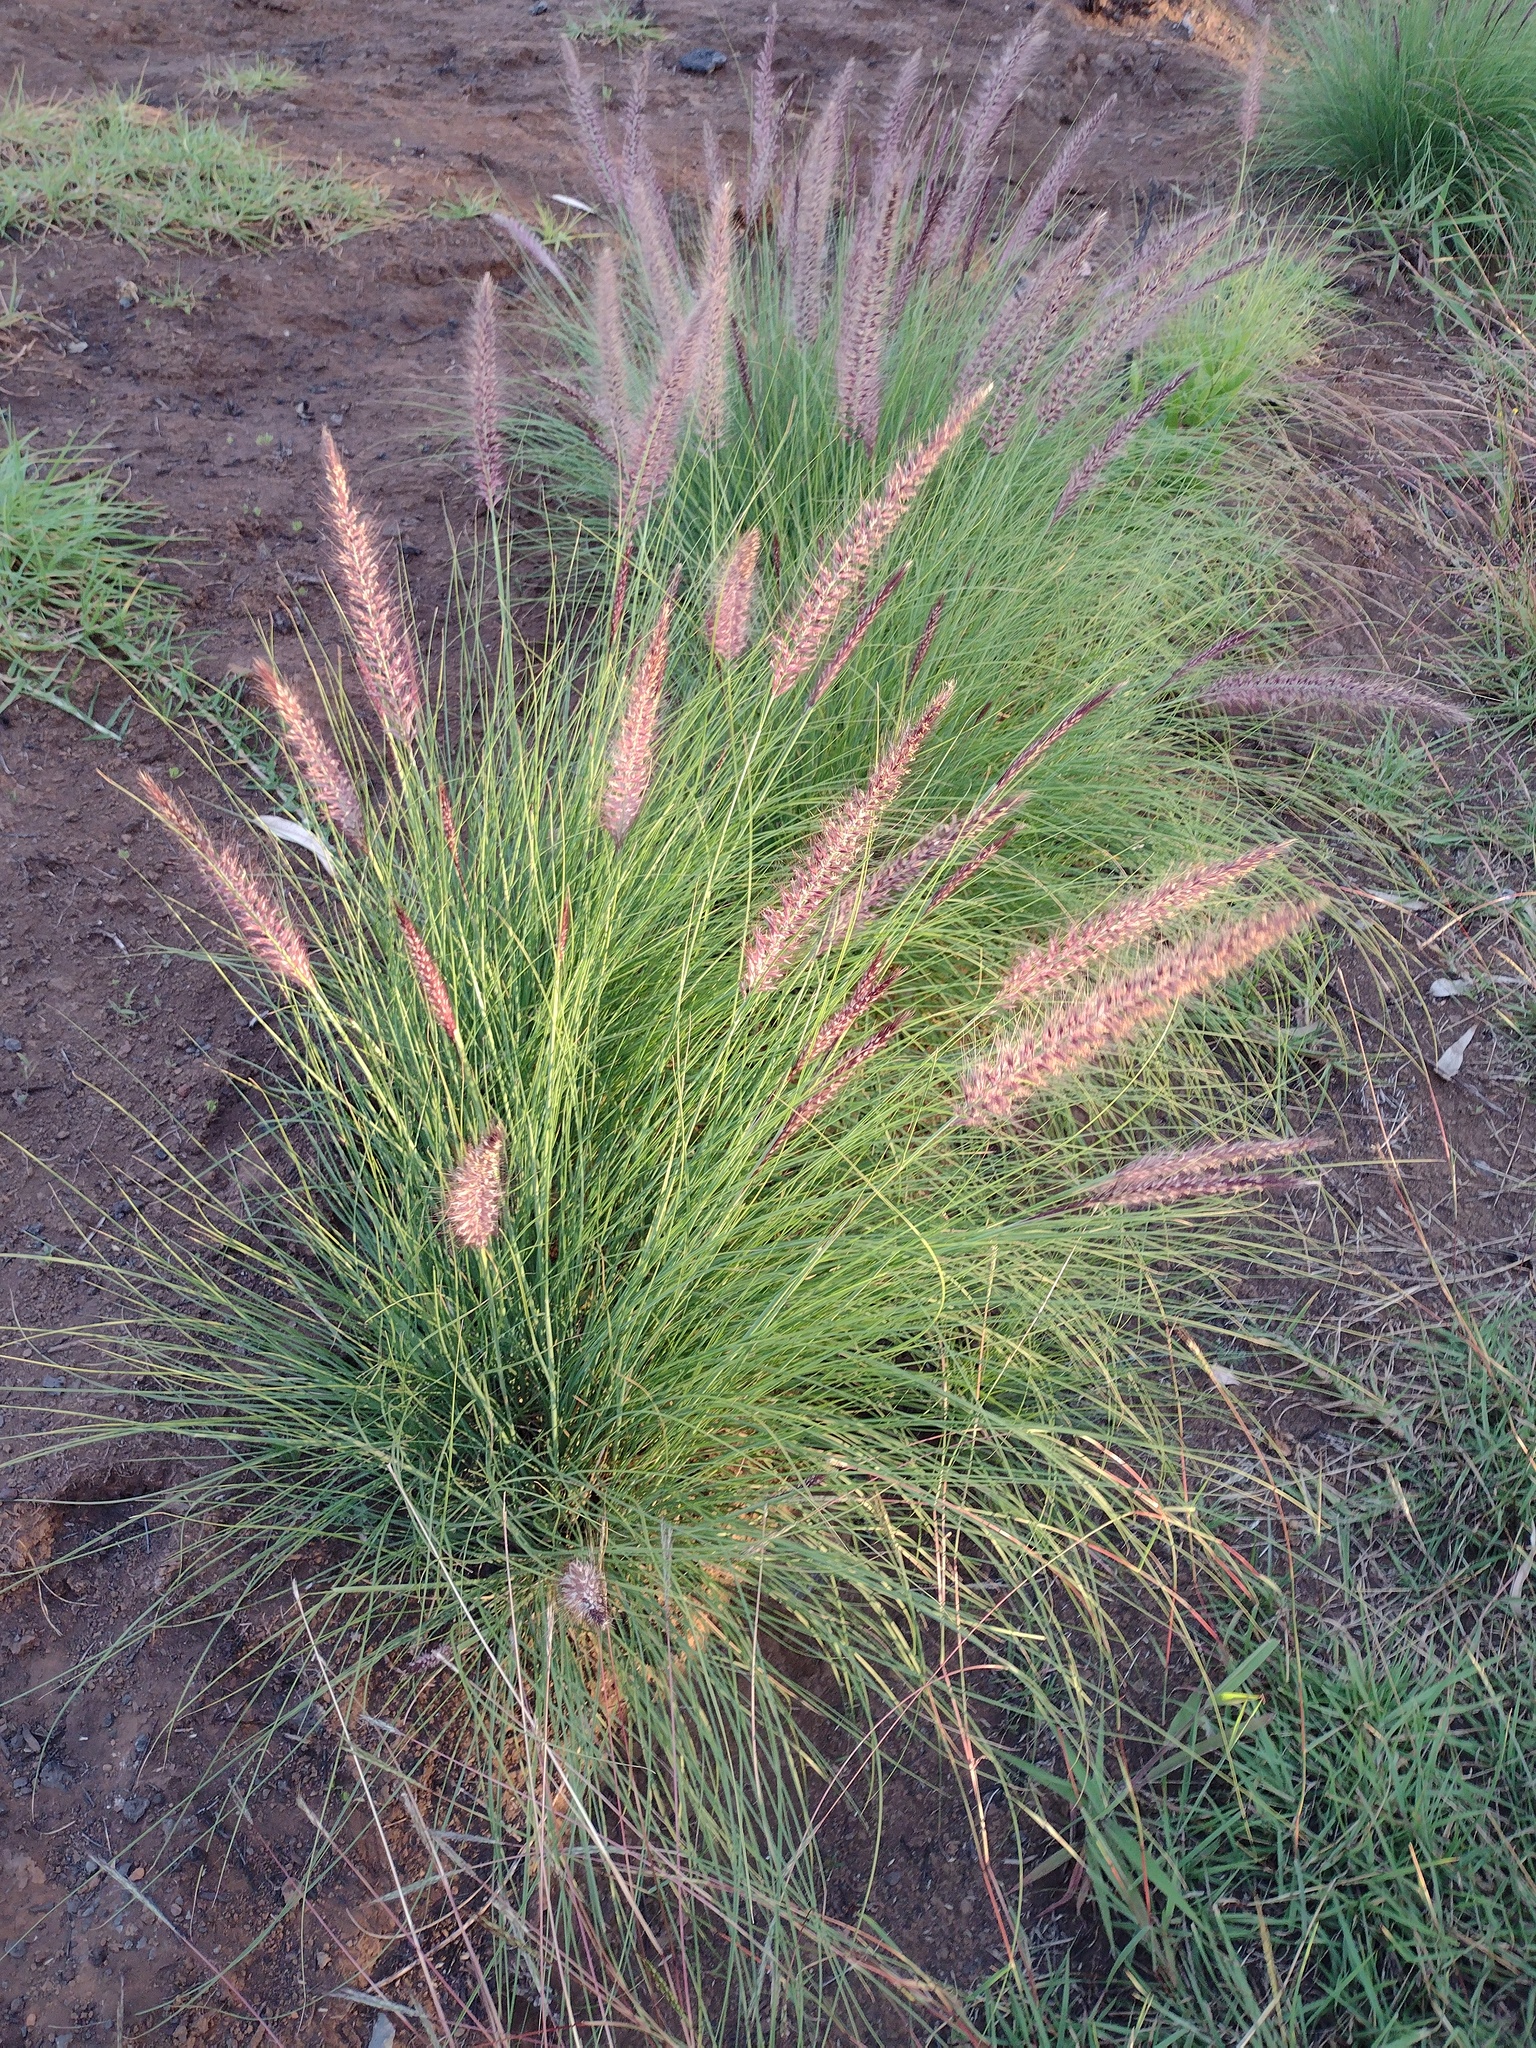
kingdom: Plantae
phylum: Tracheophyta
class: Liliopsida
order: Poales
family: Poaceae
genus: Cenchrus
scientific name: Cenchrus setaceus
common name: Crimson fountaingrass
